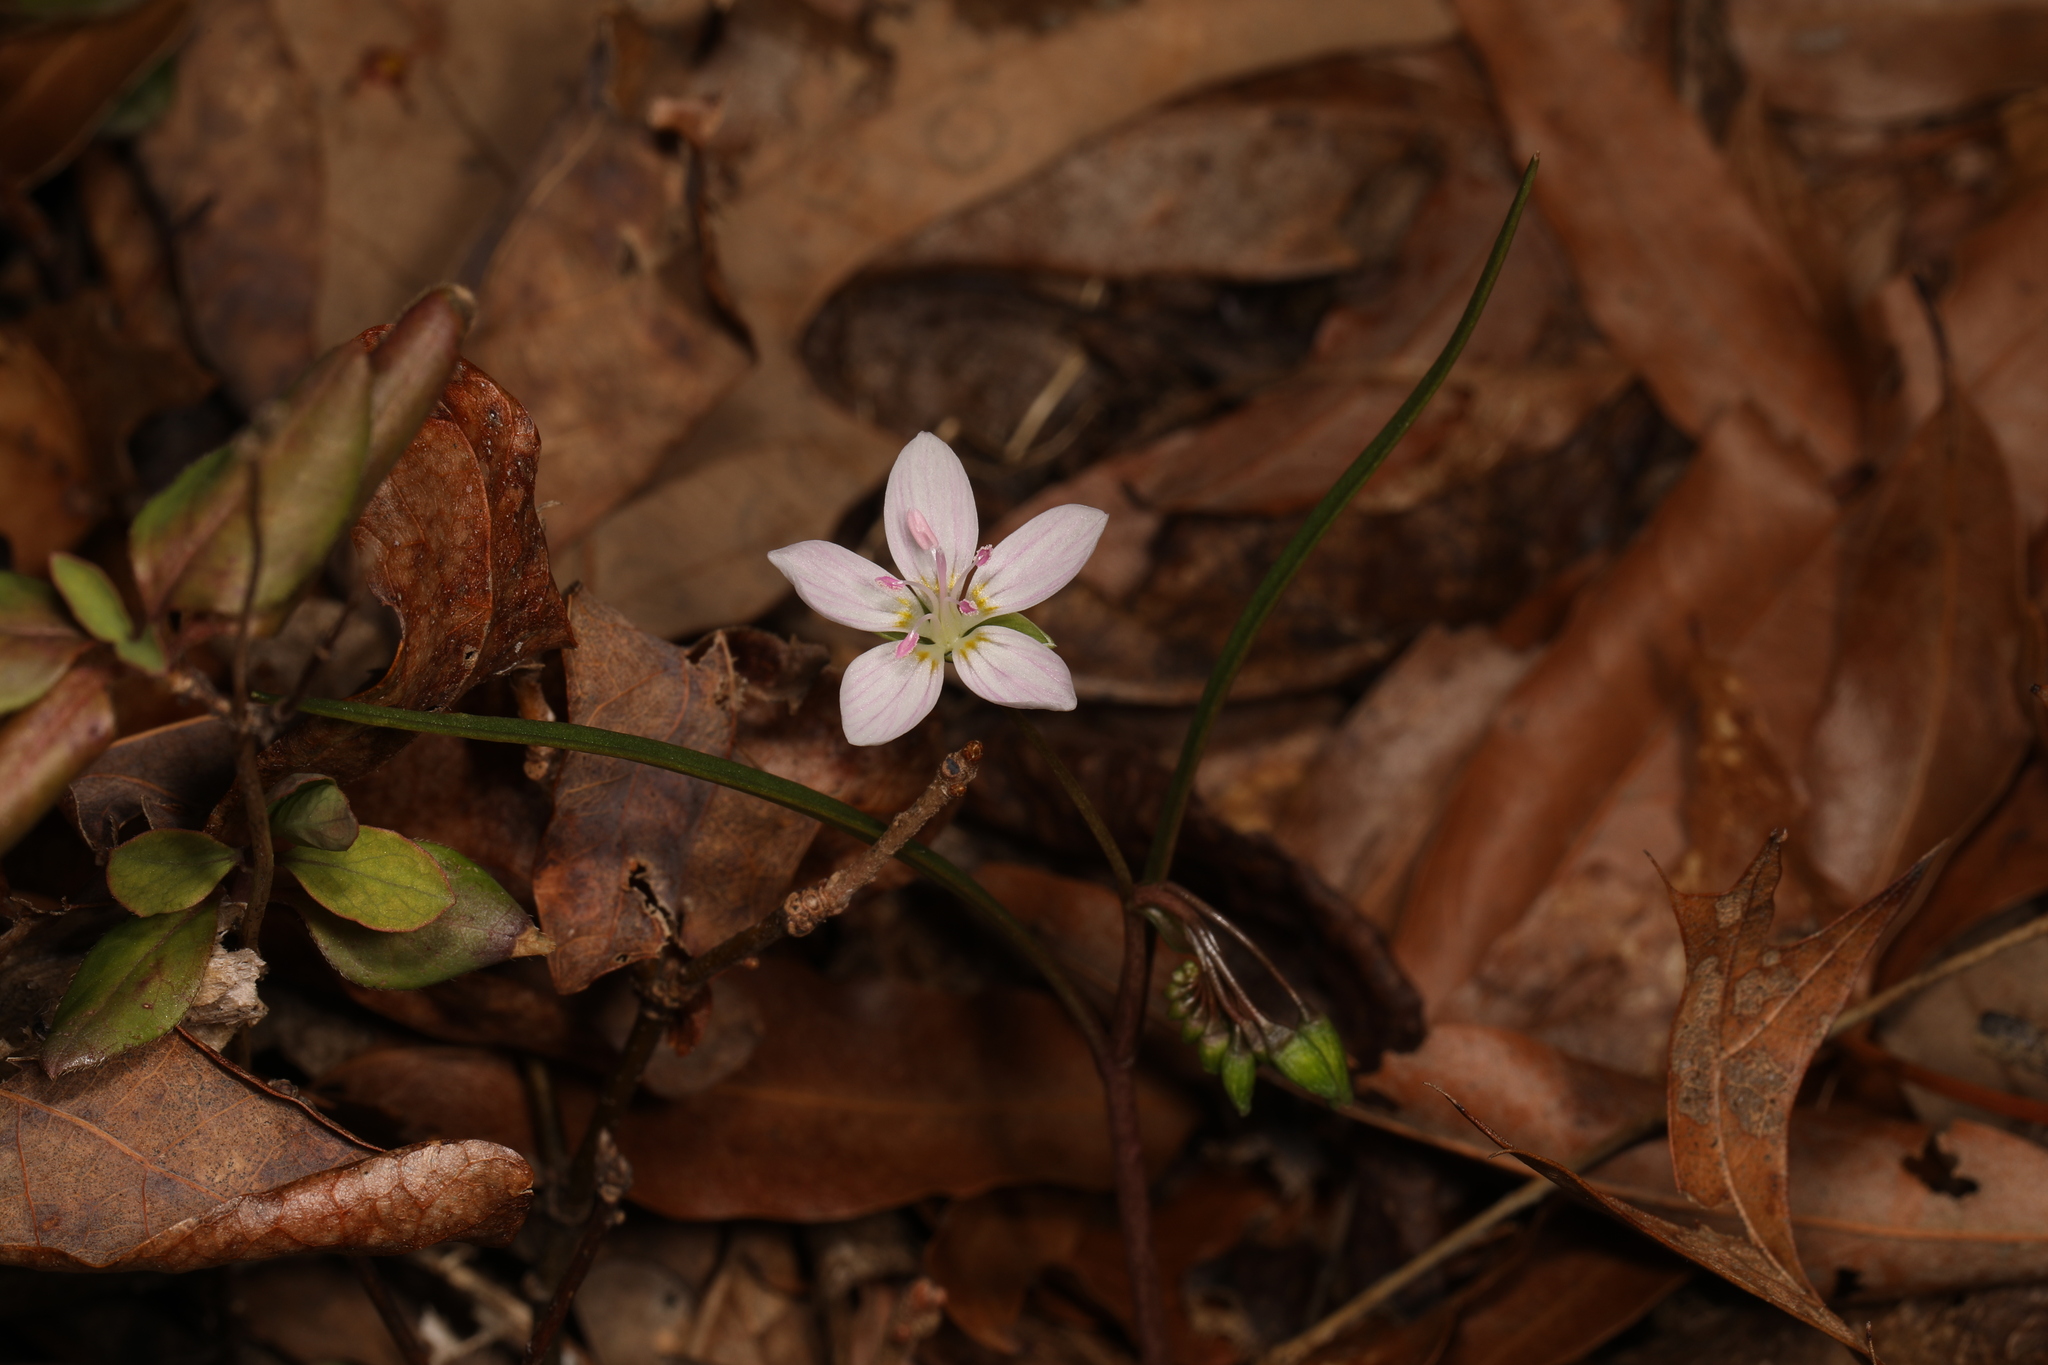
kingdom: Plantae
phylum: Tracheophyta
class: Magnoliopsida
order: Caryophyllales
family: Montiaceae
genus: Claytonia
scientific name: Claytonia virginica
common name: Virginia springbeauty
